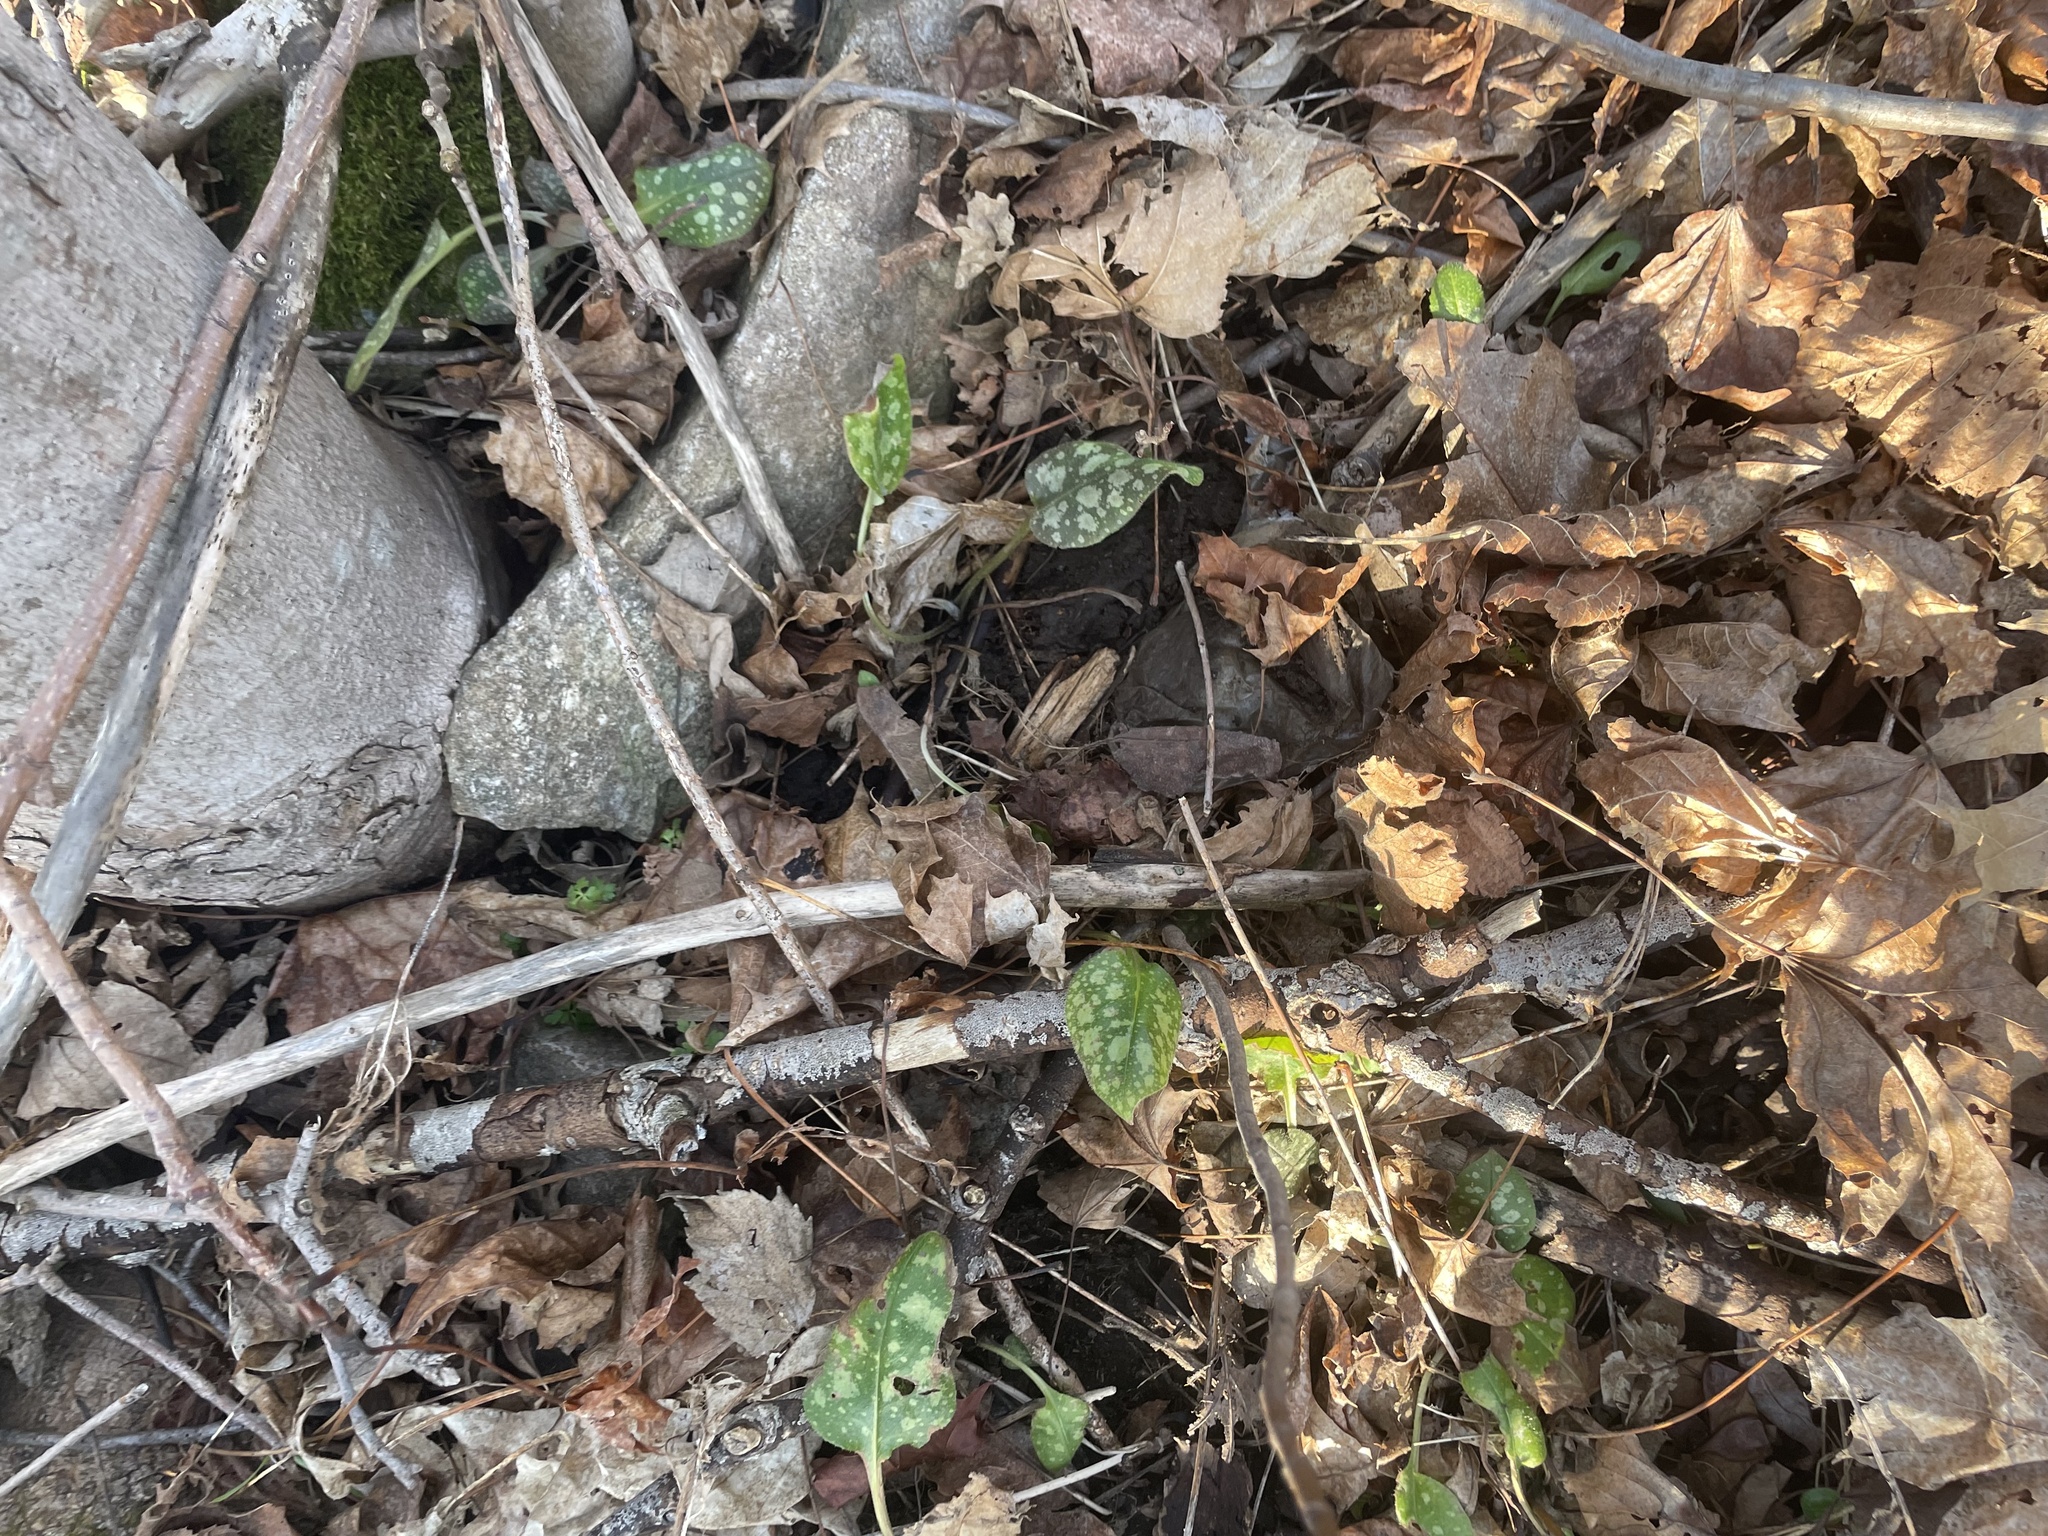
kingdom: Plantae
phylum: Tracheophyta
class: Magnoliopsida
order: Boraginales
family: Boraginaceae
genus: Pulmonaria
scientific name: Pulmonaria officinalis
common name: Lungwort
